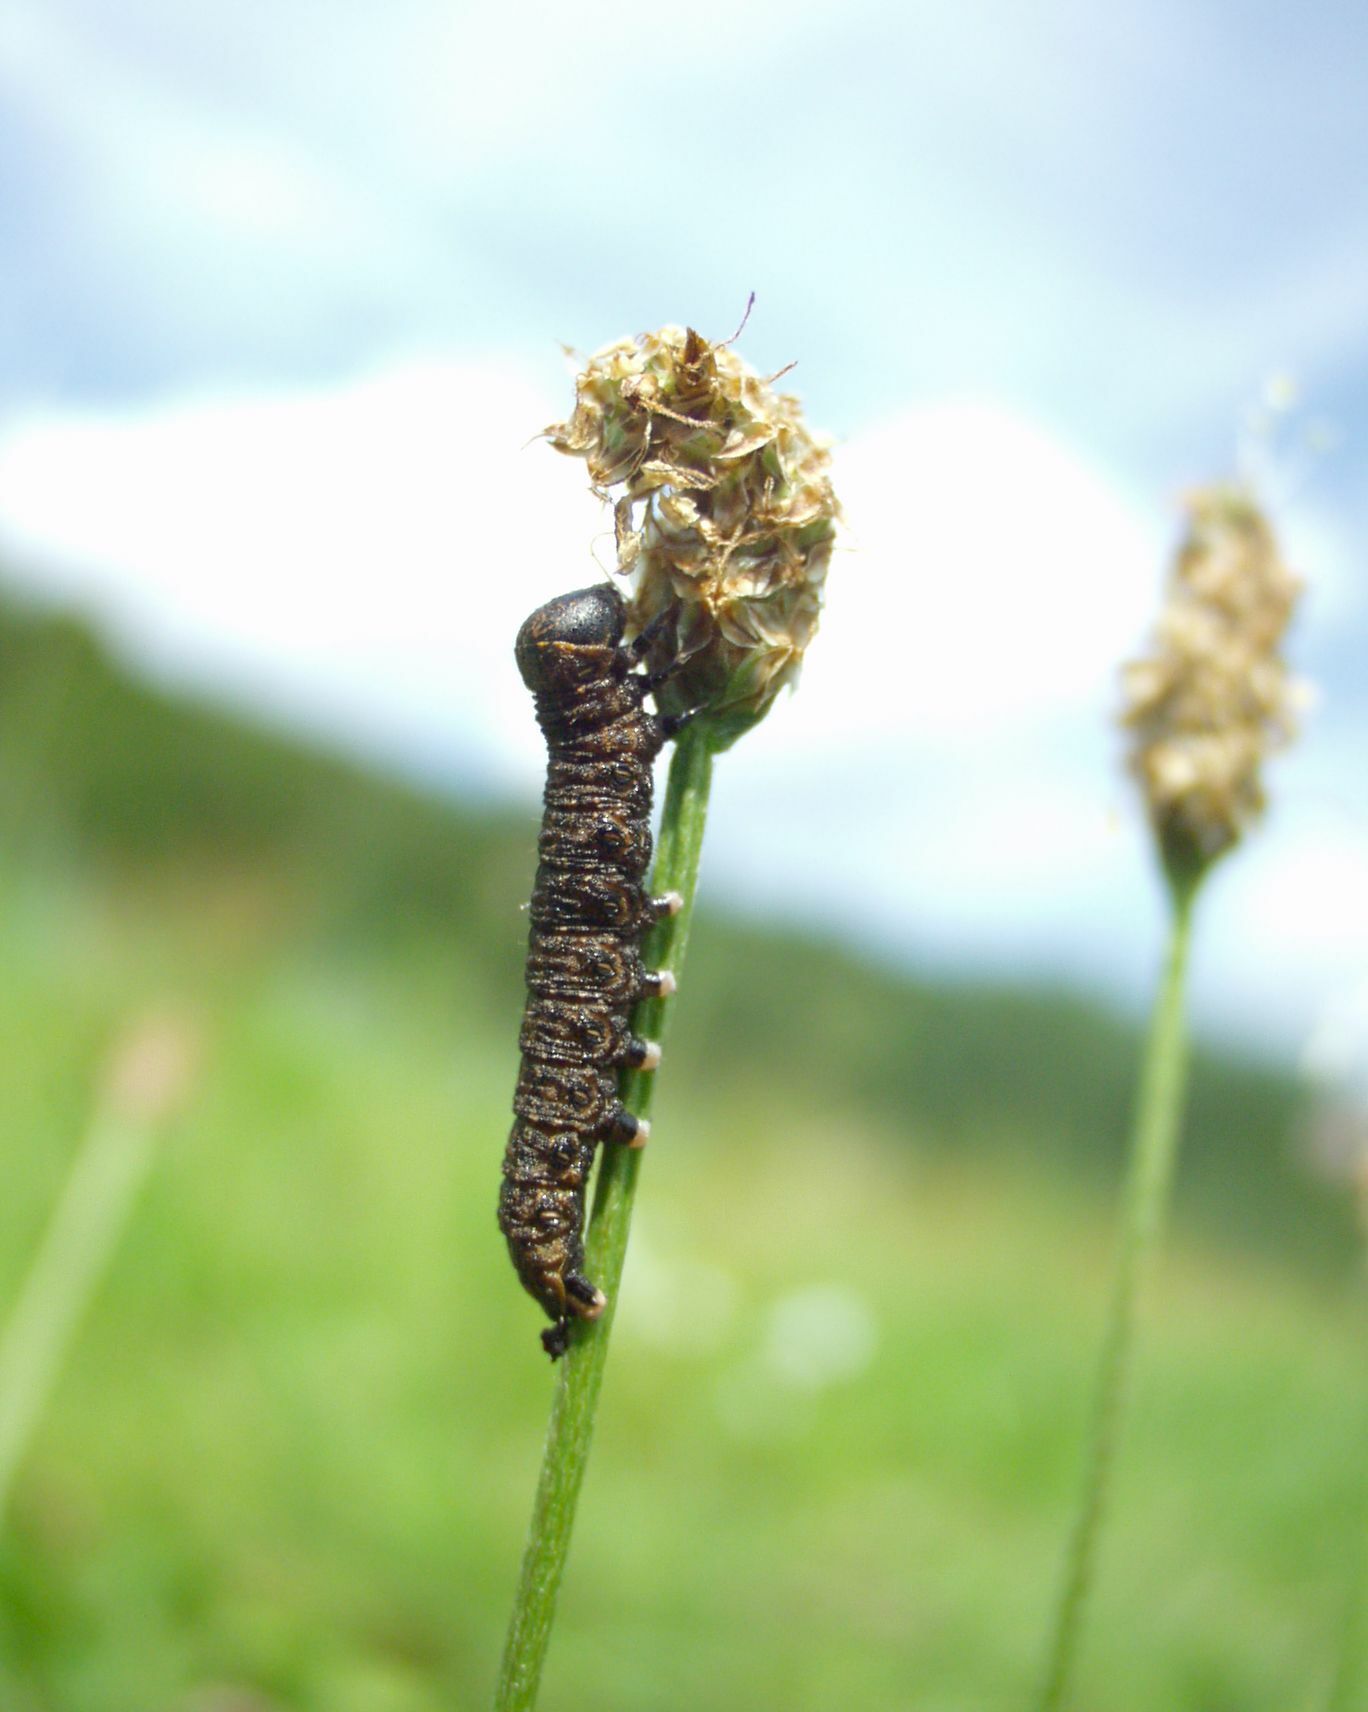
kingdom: Animalia
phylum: Arthropoda
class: Insecta
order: Lepidoptera
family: Noctuidae
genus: Cucullia
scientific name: Cucullia umbratica
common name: Shark
